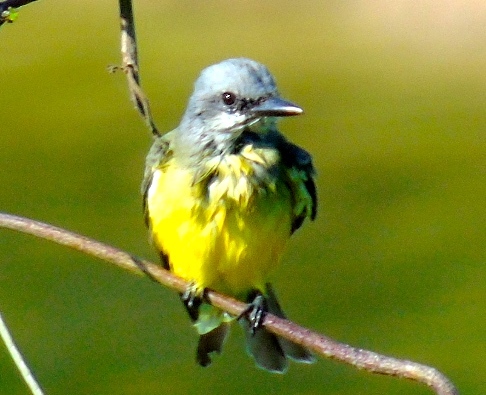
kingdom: Animalia
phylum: Chordata
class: Aves
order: Passeriformes
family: Tyrannidae
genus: Tyrannus
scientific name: Tyrannus melancholicus
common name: Tropical kingbird
